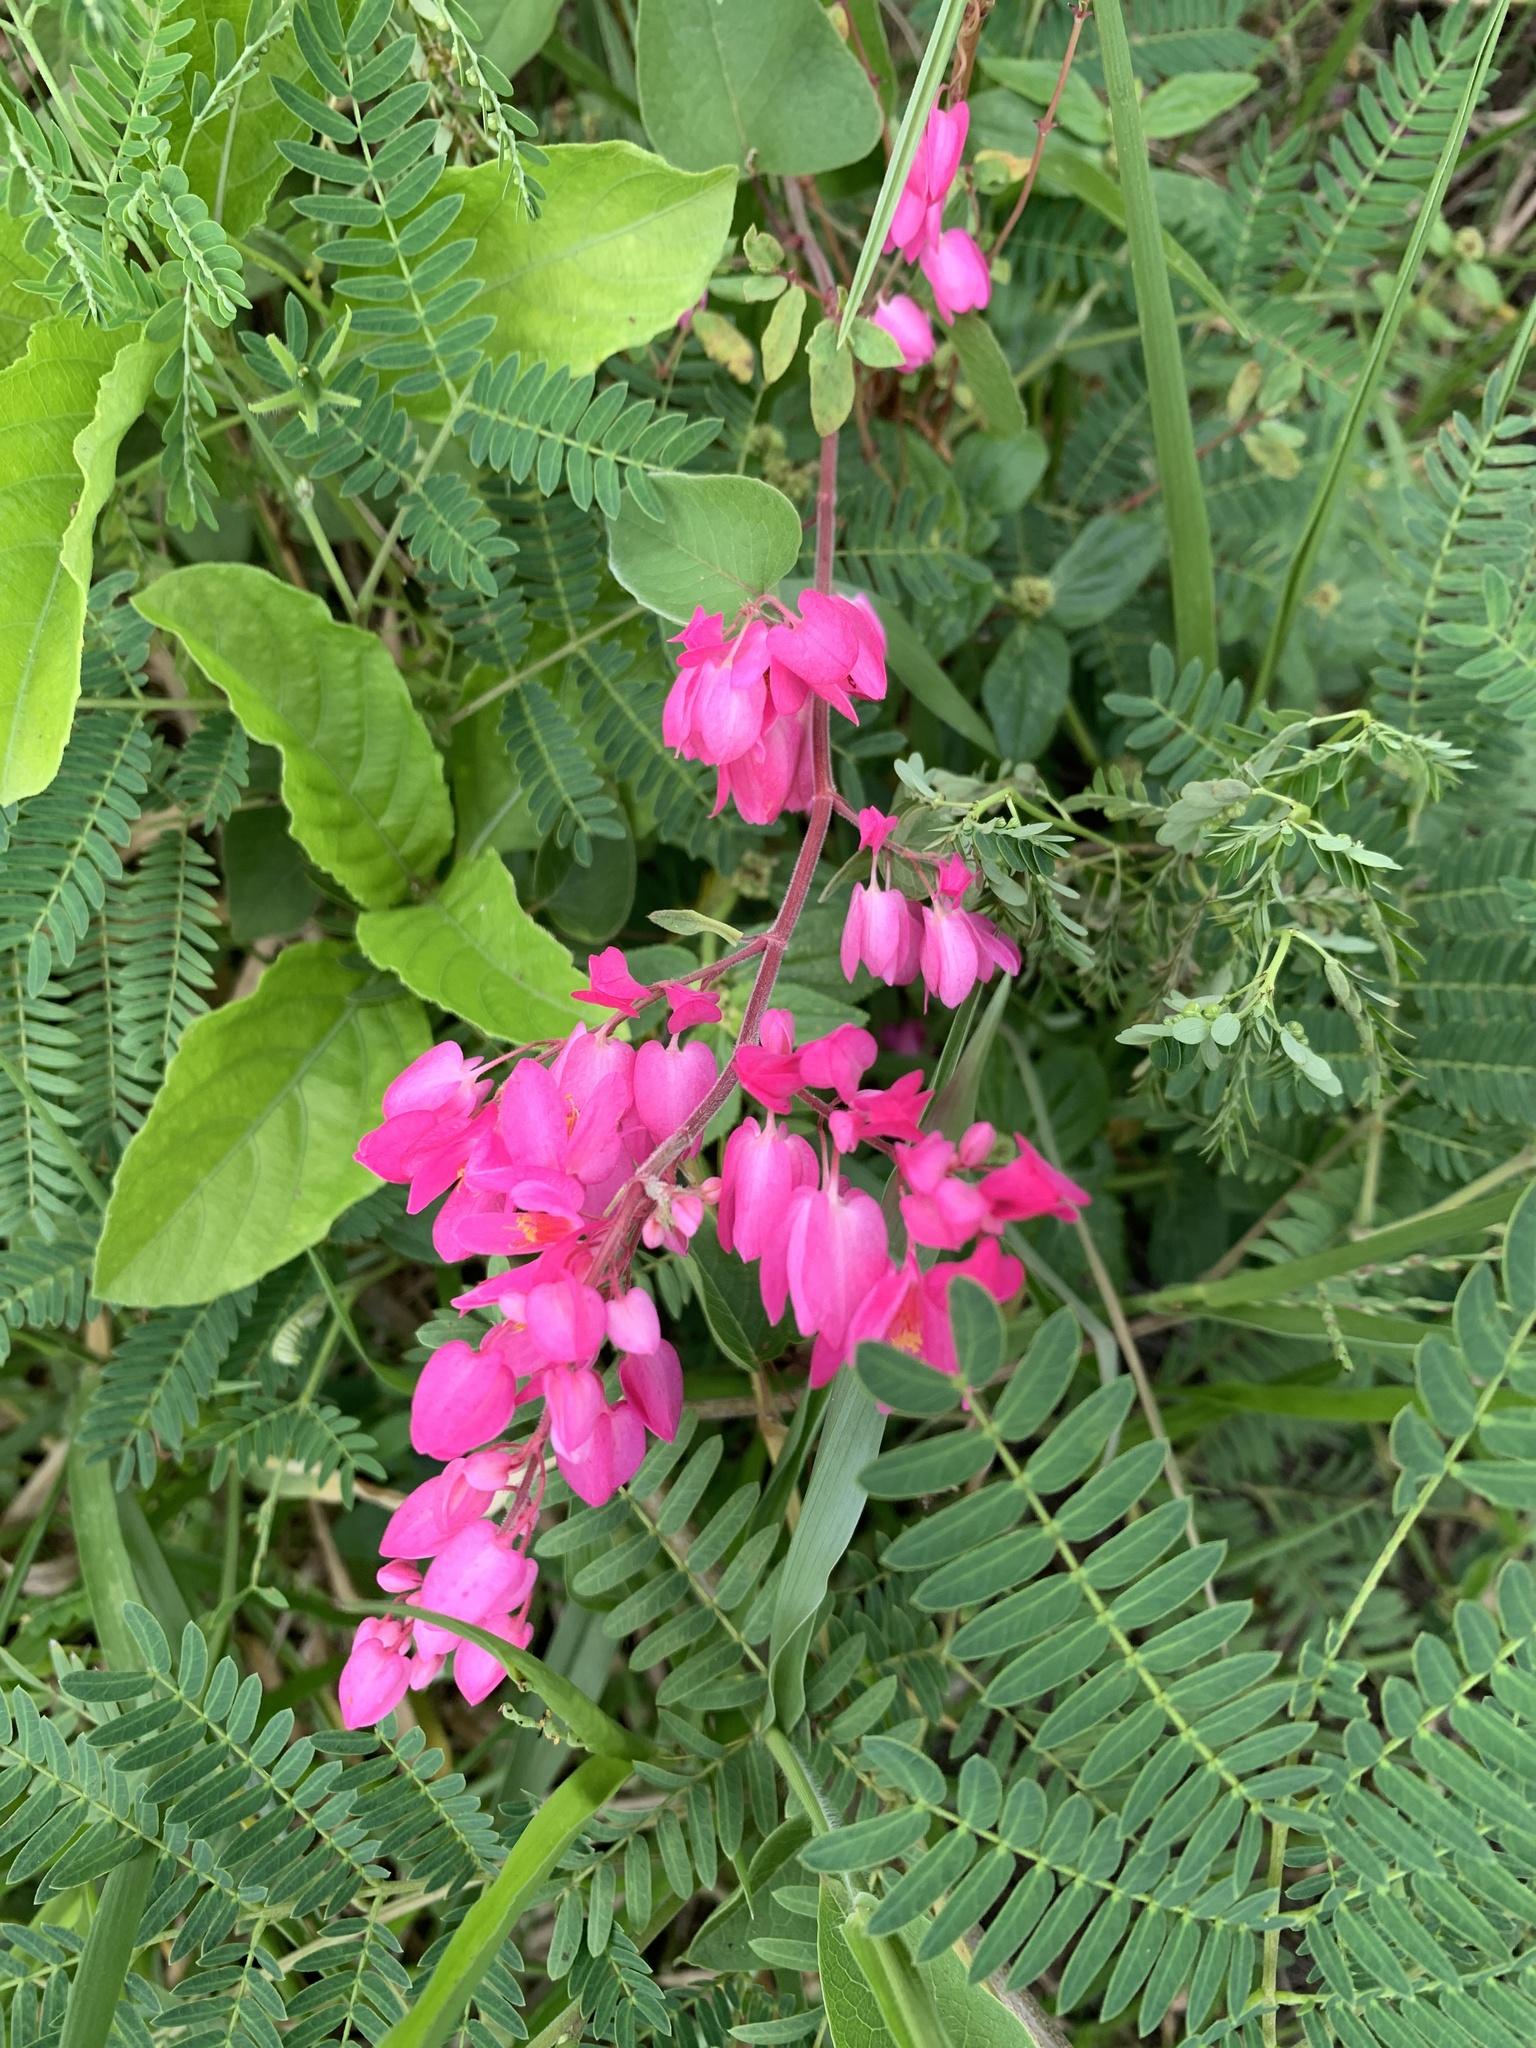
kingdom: Plantae
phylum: Tracheophyta
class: Magnoliopsida
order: Caryophyllales
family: Polygonaceae
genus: Antigonon
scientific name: Antigonon leptopus
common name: Coral vine
